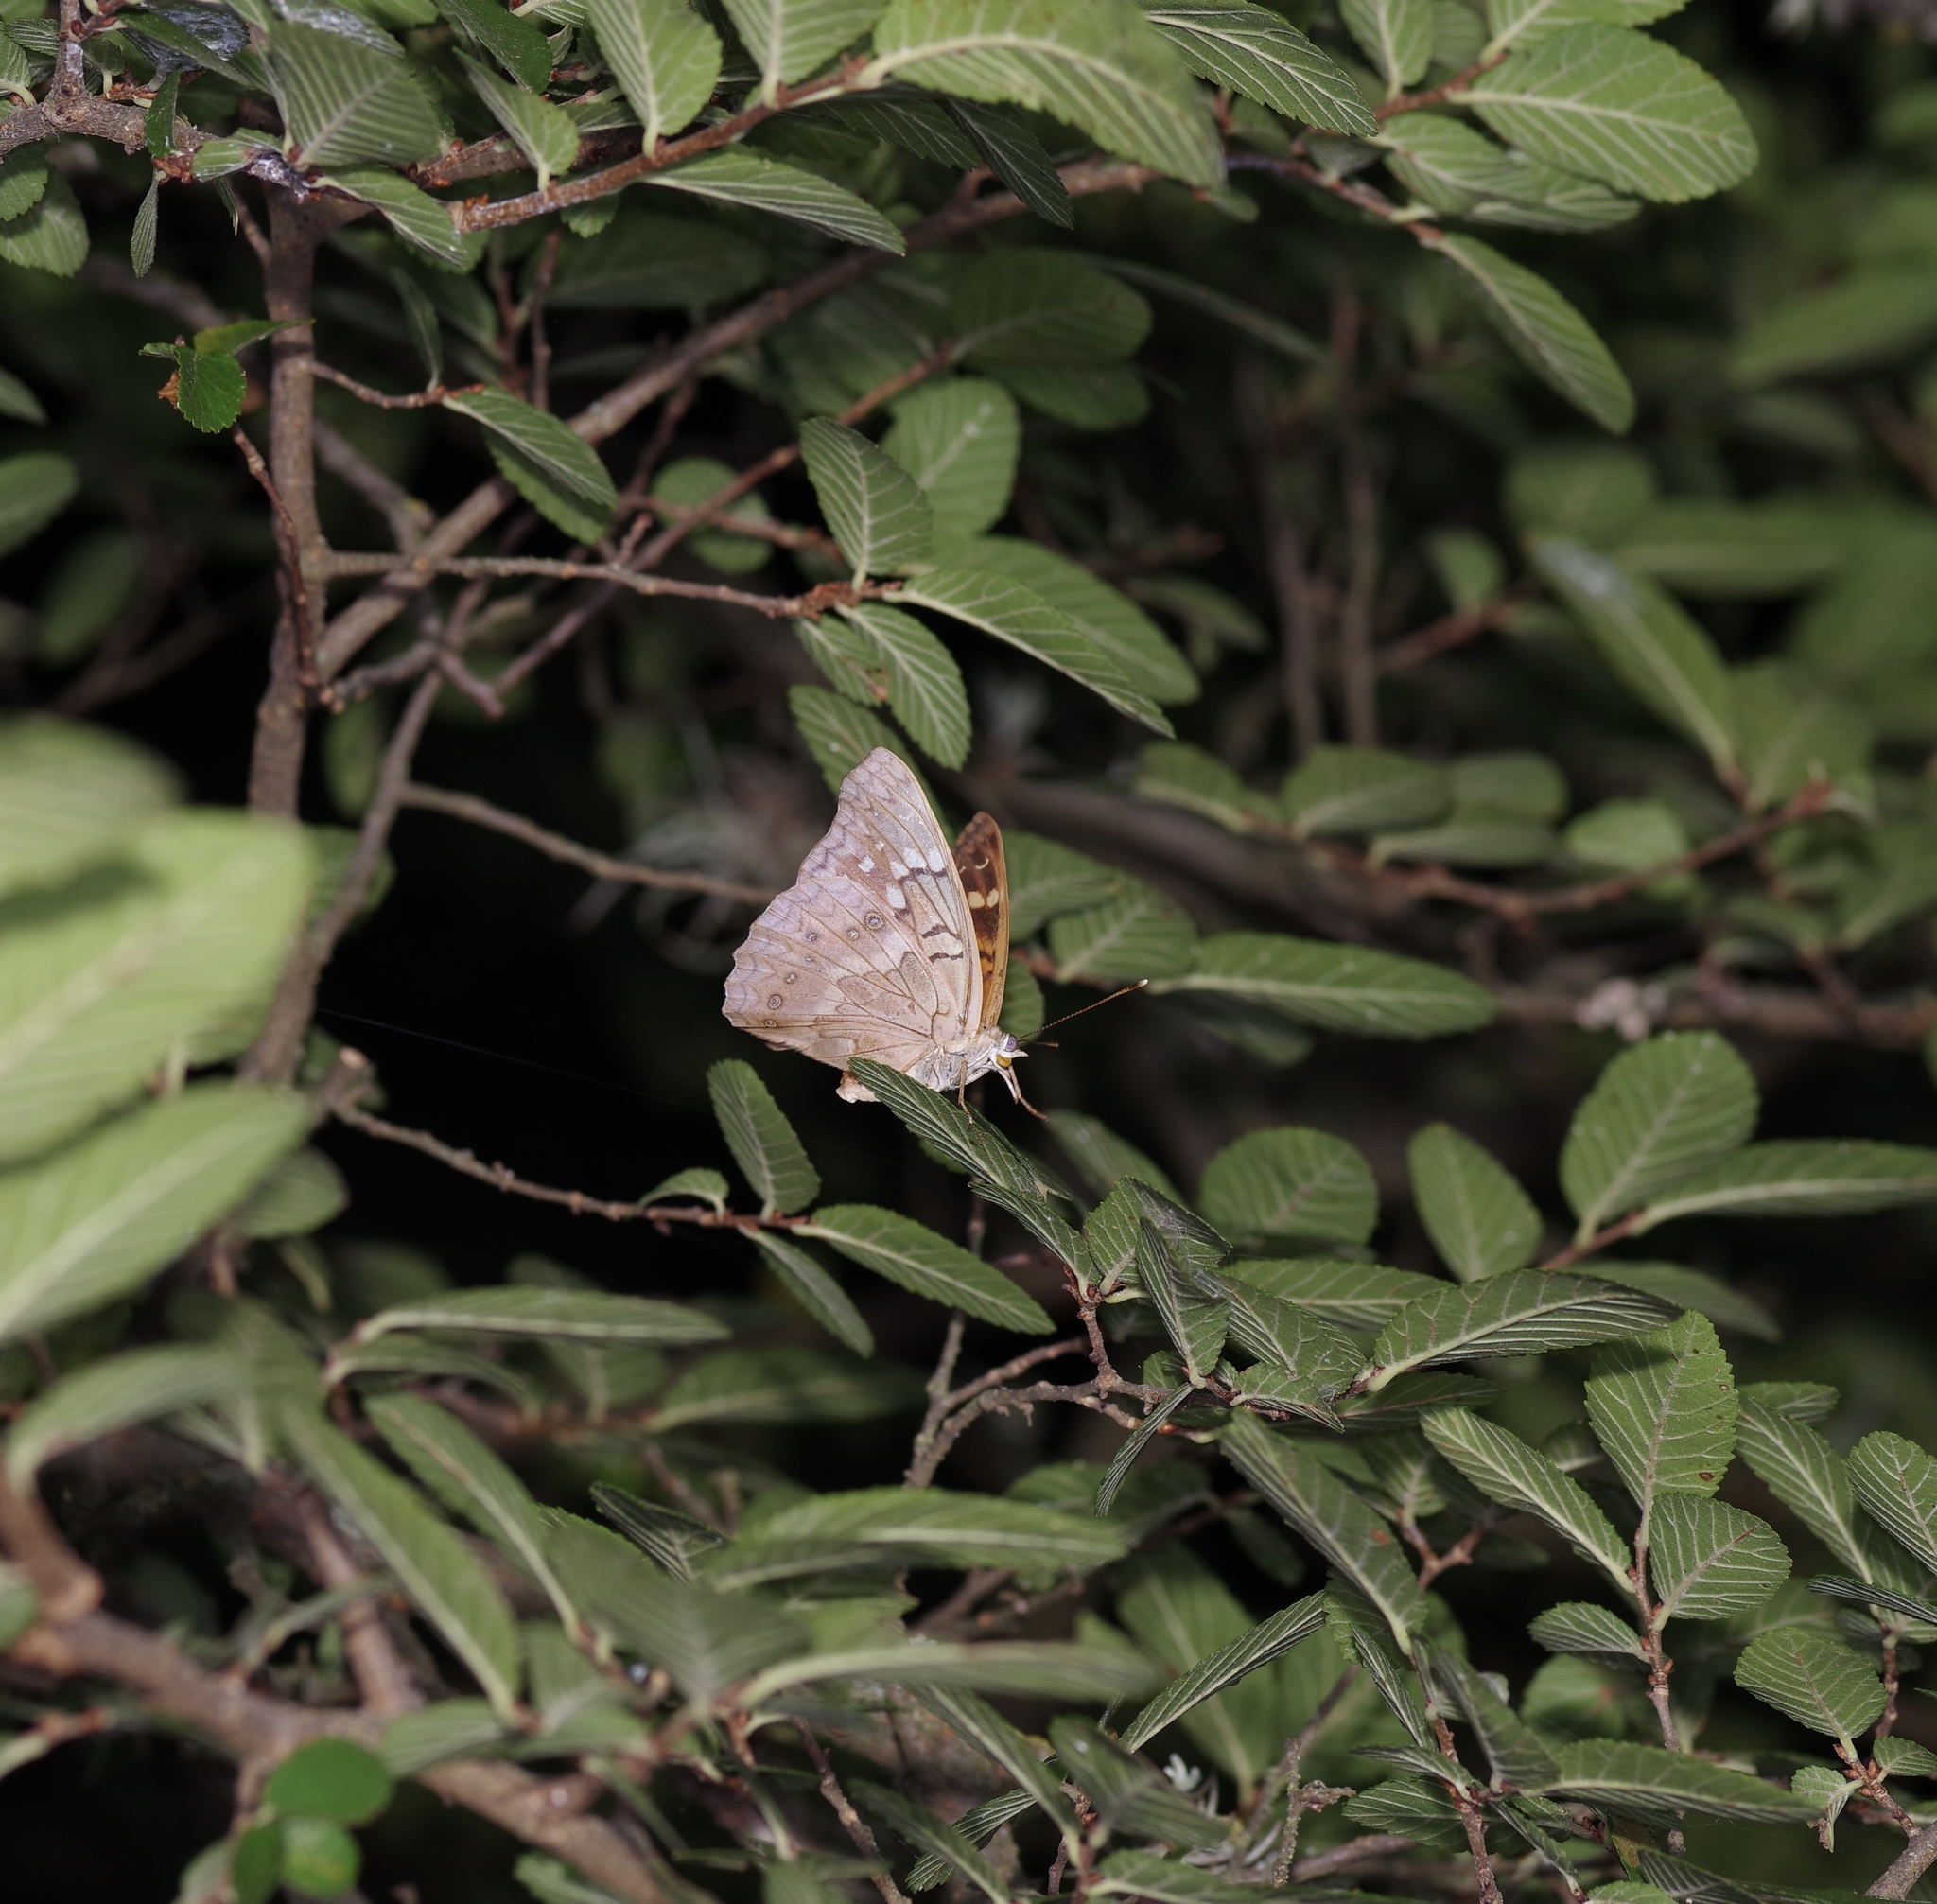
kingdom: Animalia
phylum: Arthropoda
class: Insecta
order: Lepidoptera
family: Nymphalidae
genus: Asterocampa
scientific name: Asterocampa clyton
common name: Tawny emperor
